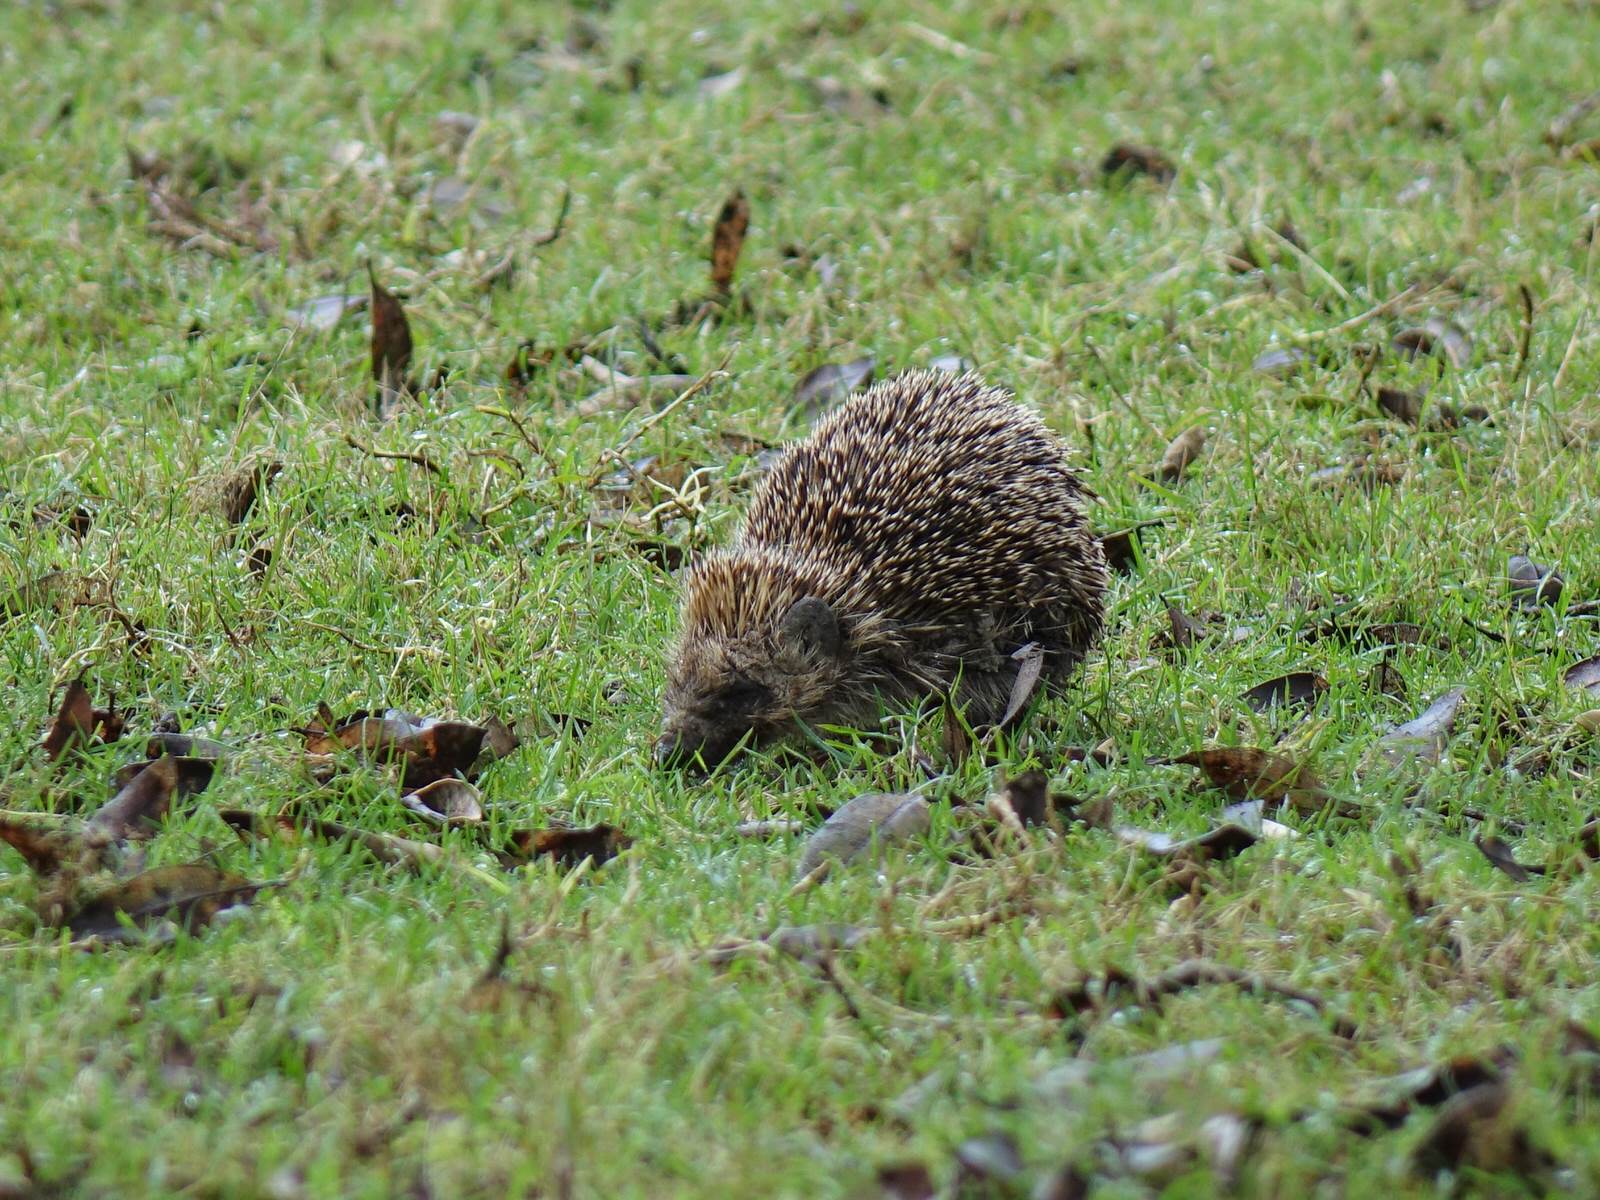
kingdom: Animalia
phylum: Chordata
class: Mammalia
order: Erinaceomorpha
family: Erinaceidae
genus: Erinaceus
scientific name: Erinaceus europaeus
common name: West european hedgehog
